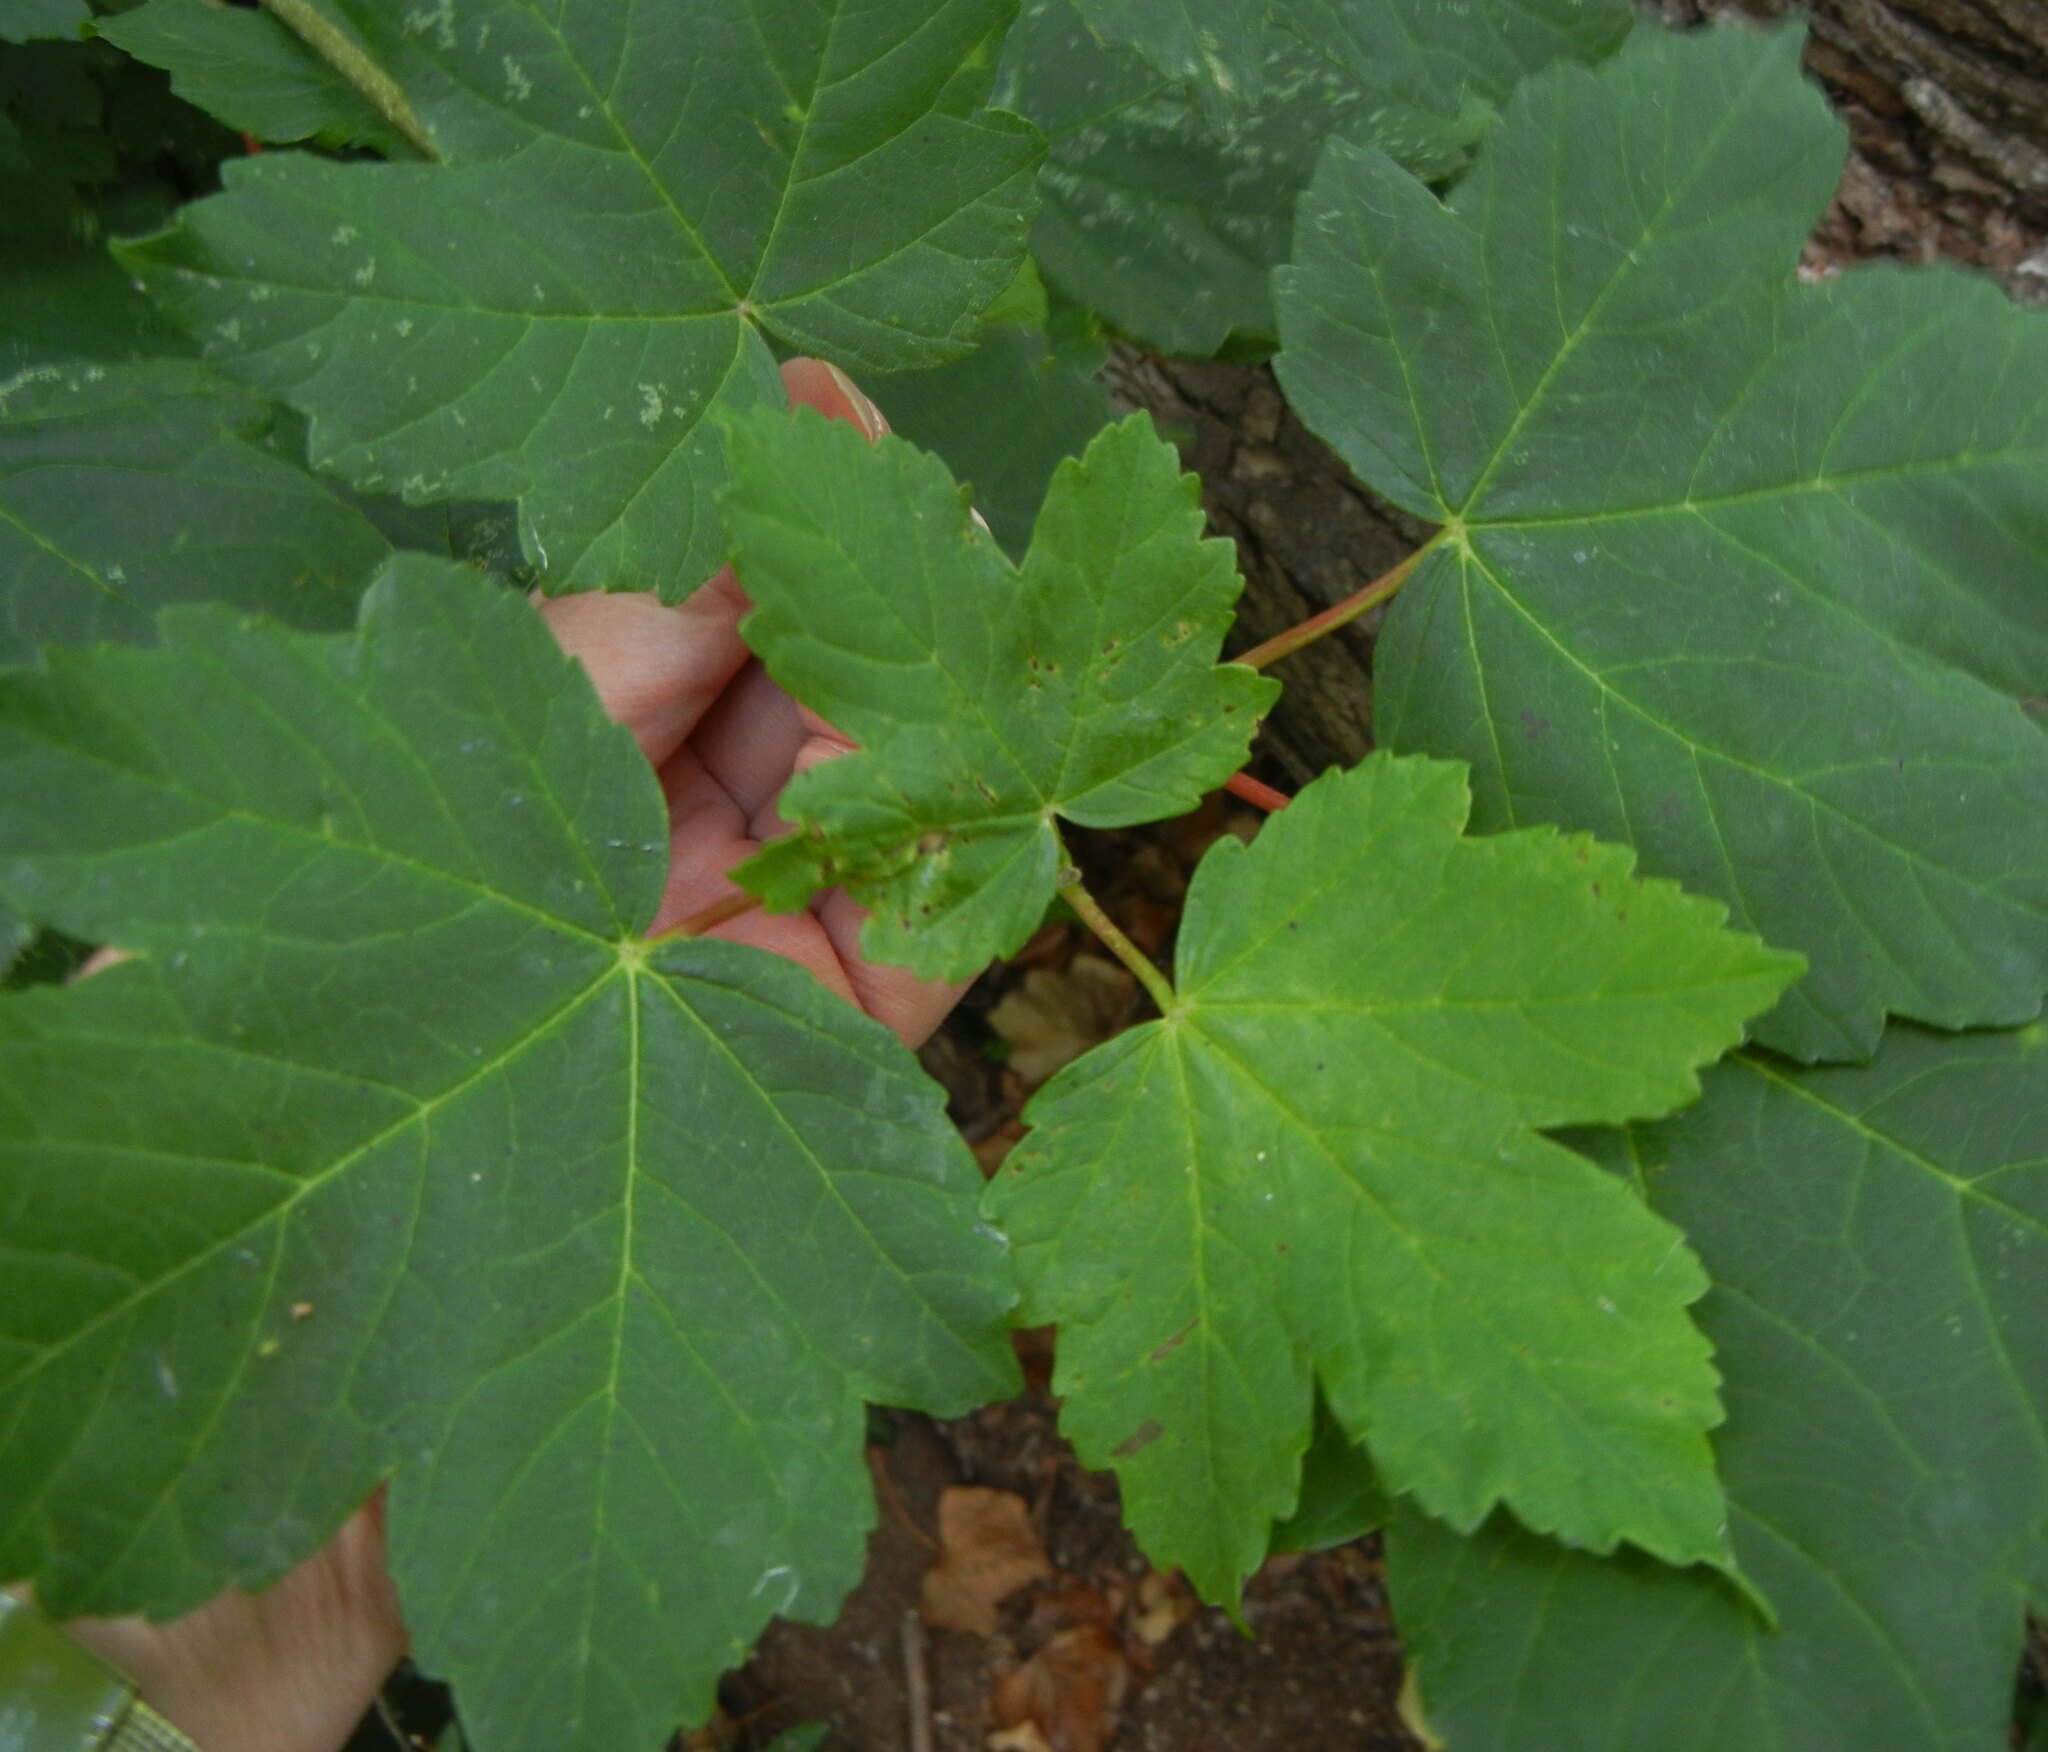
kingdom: Plantae
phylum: Tracheophyta
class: Magnoliopsida
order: Sapindales
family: Sapindaceae
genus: Acer
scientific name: Acer pseudoplatanus
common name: Sycamore
